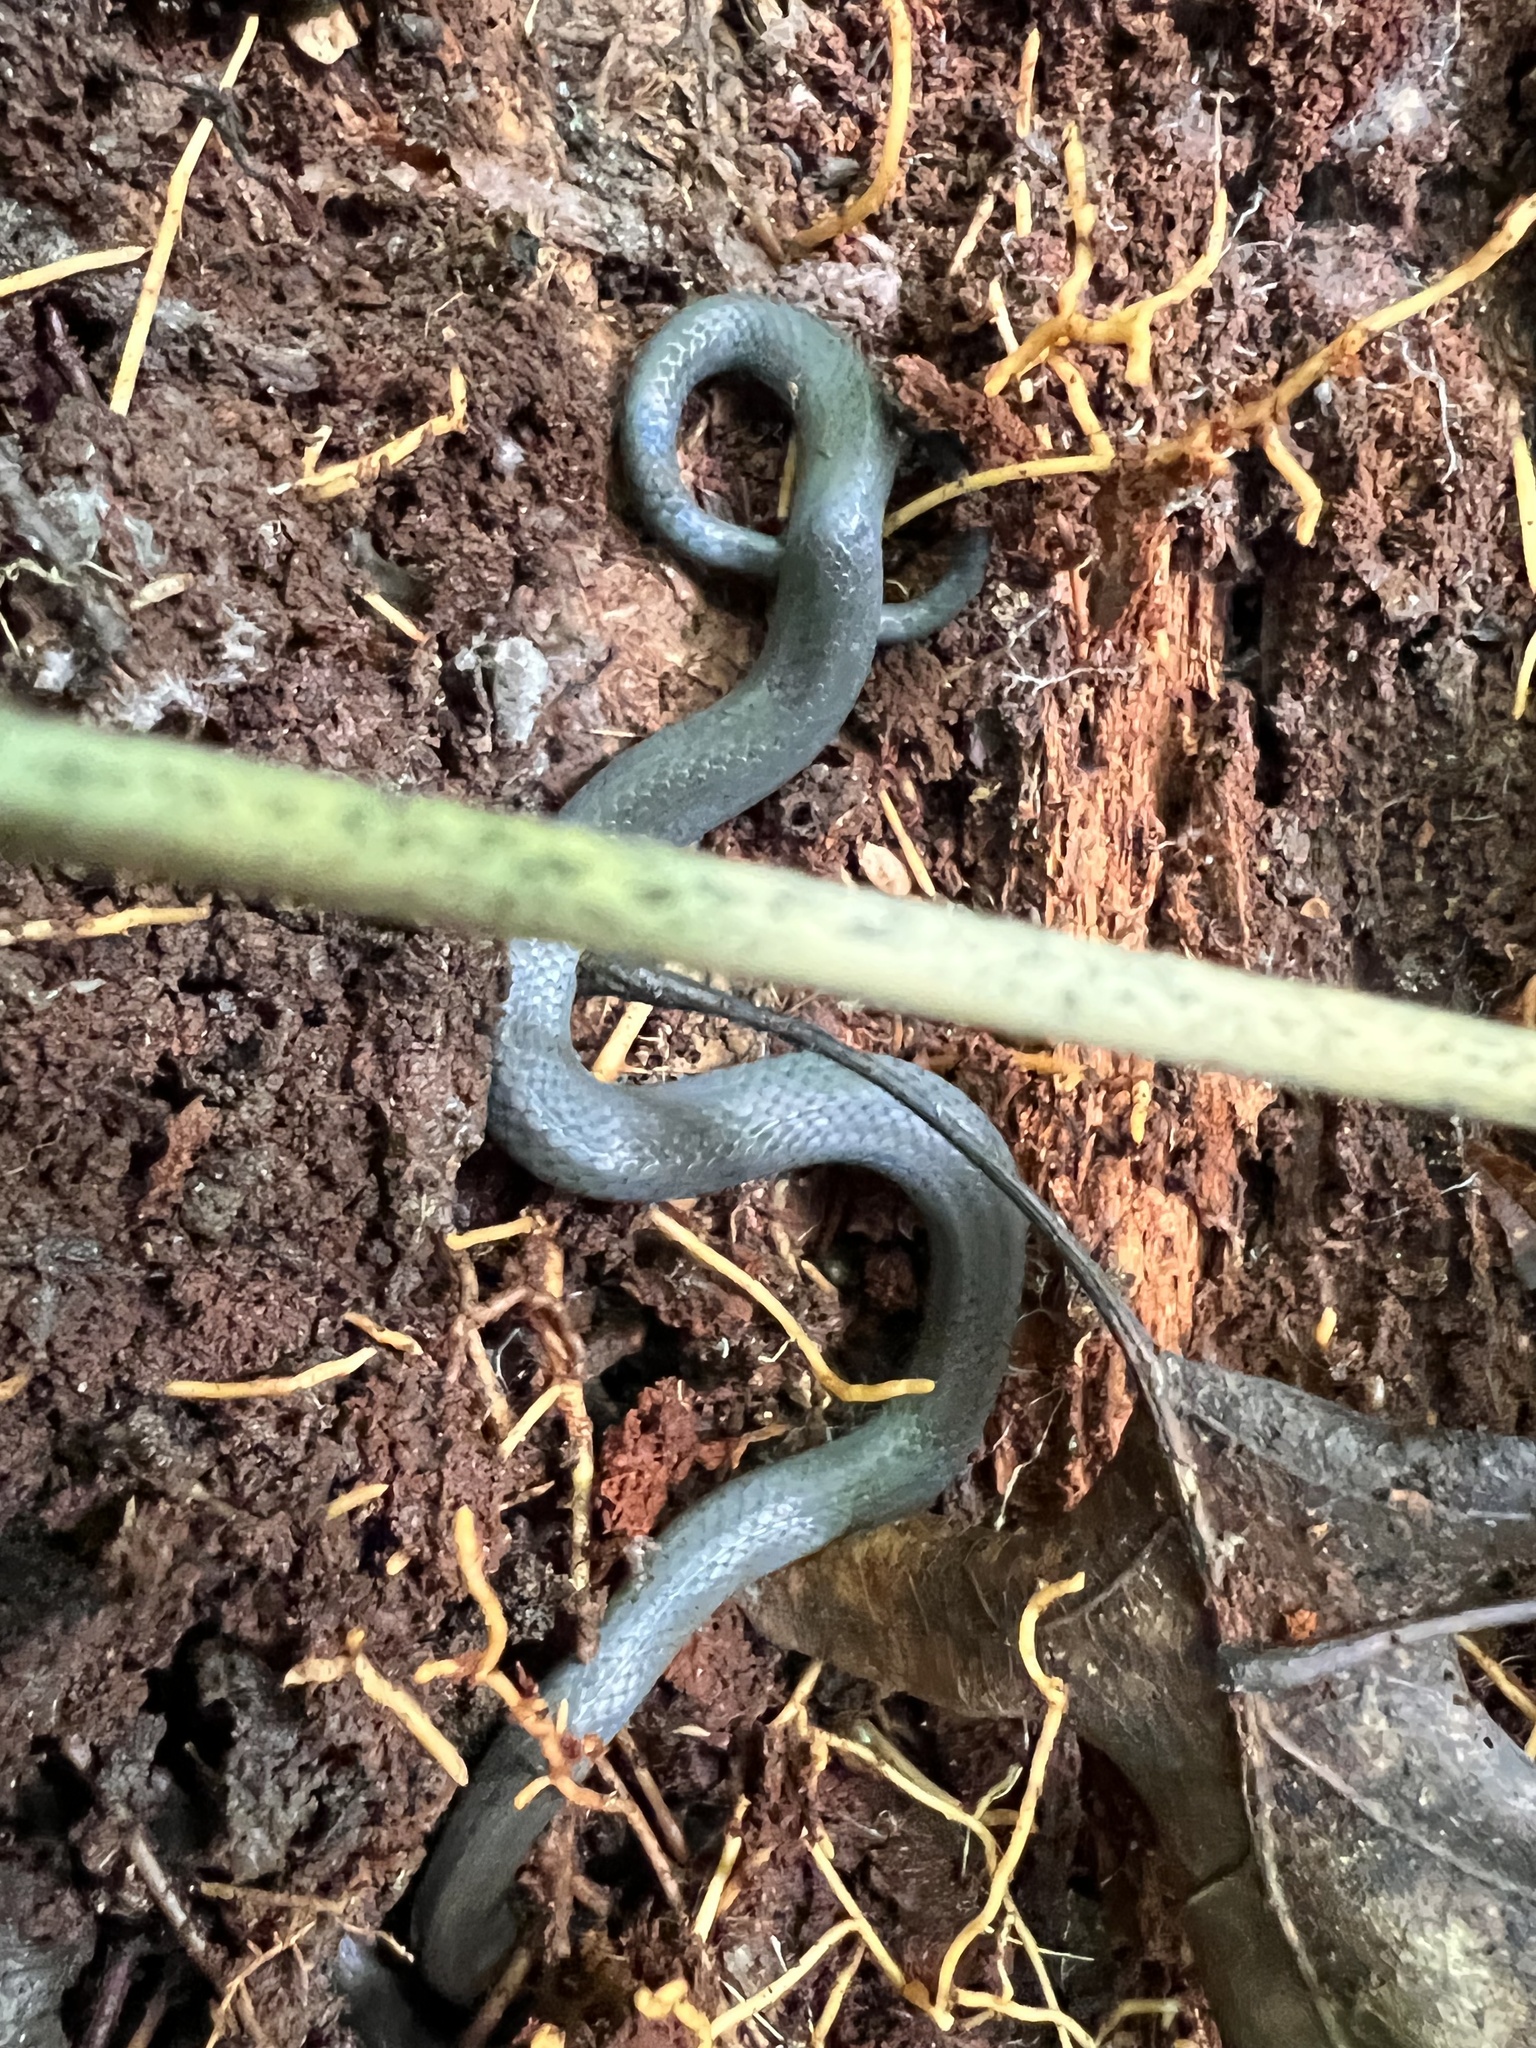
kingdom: Animalia
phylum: Chordata
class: Squamata
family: Colubridae
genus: Diadophis
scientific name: Diadophis punctatus
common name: Ringneck snake
